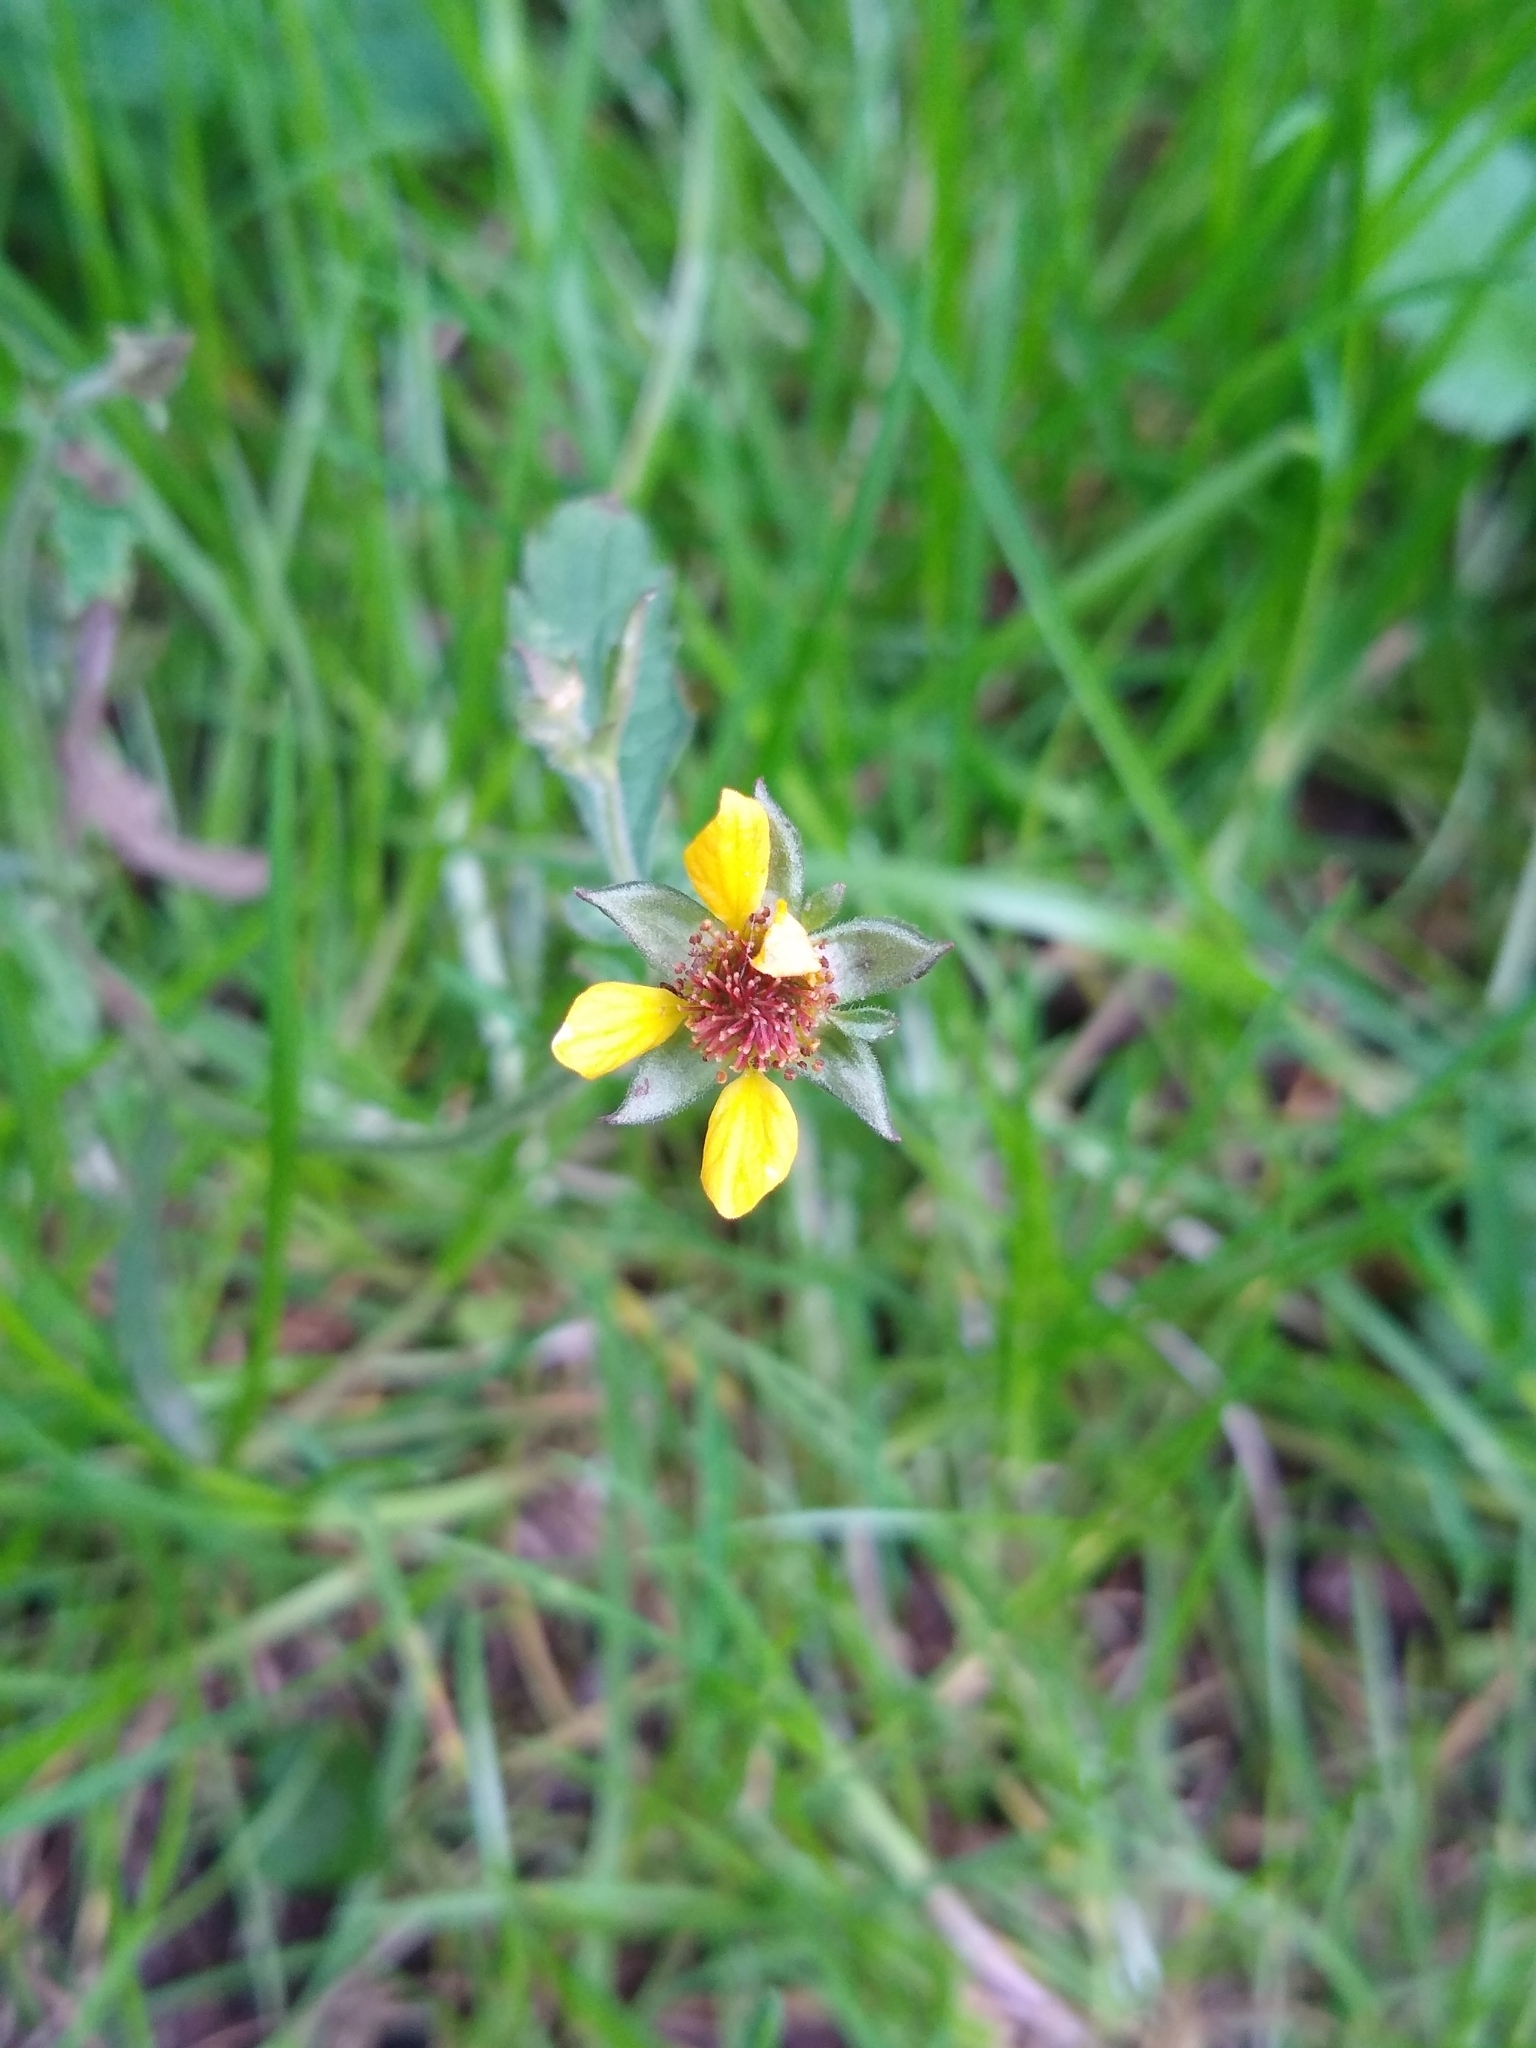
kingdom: Plantae
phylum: Tracheophyta
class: Magnoliopsida
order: Rosales
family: Rosaceae
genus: Geum
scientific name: Geum urbanum
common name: Wood avens
